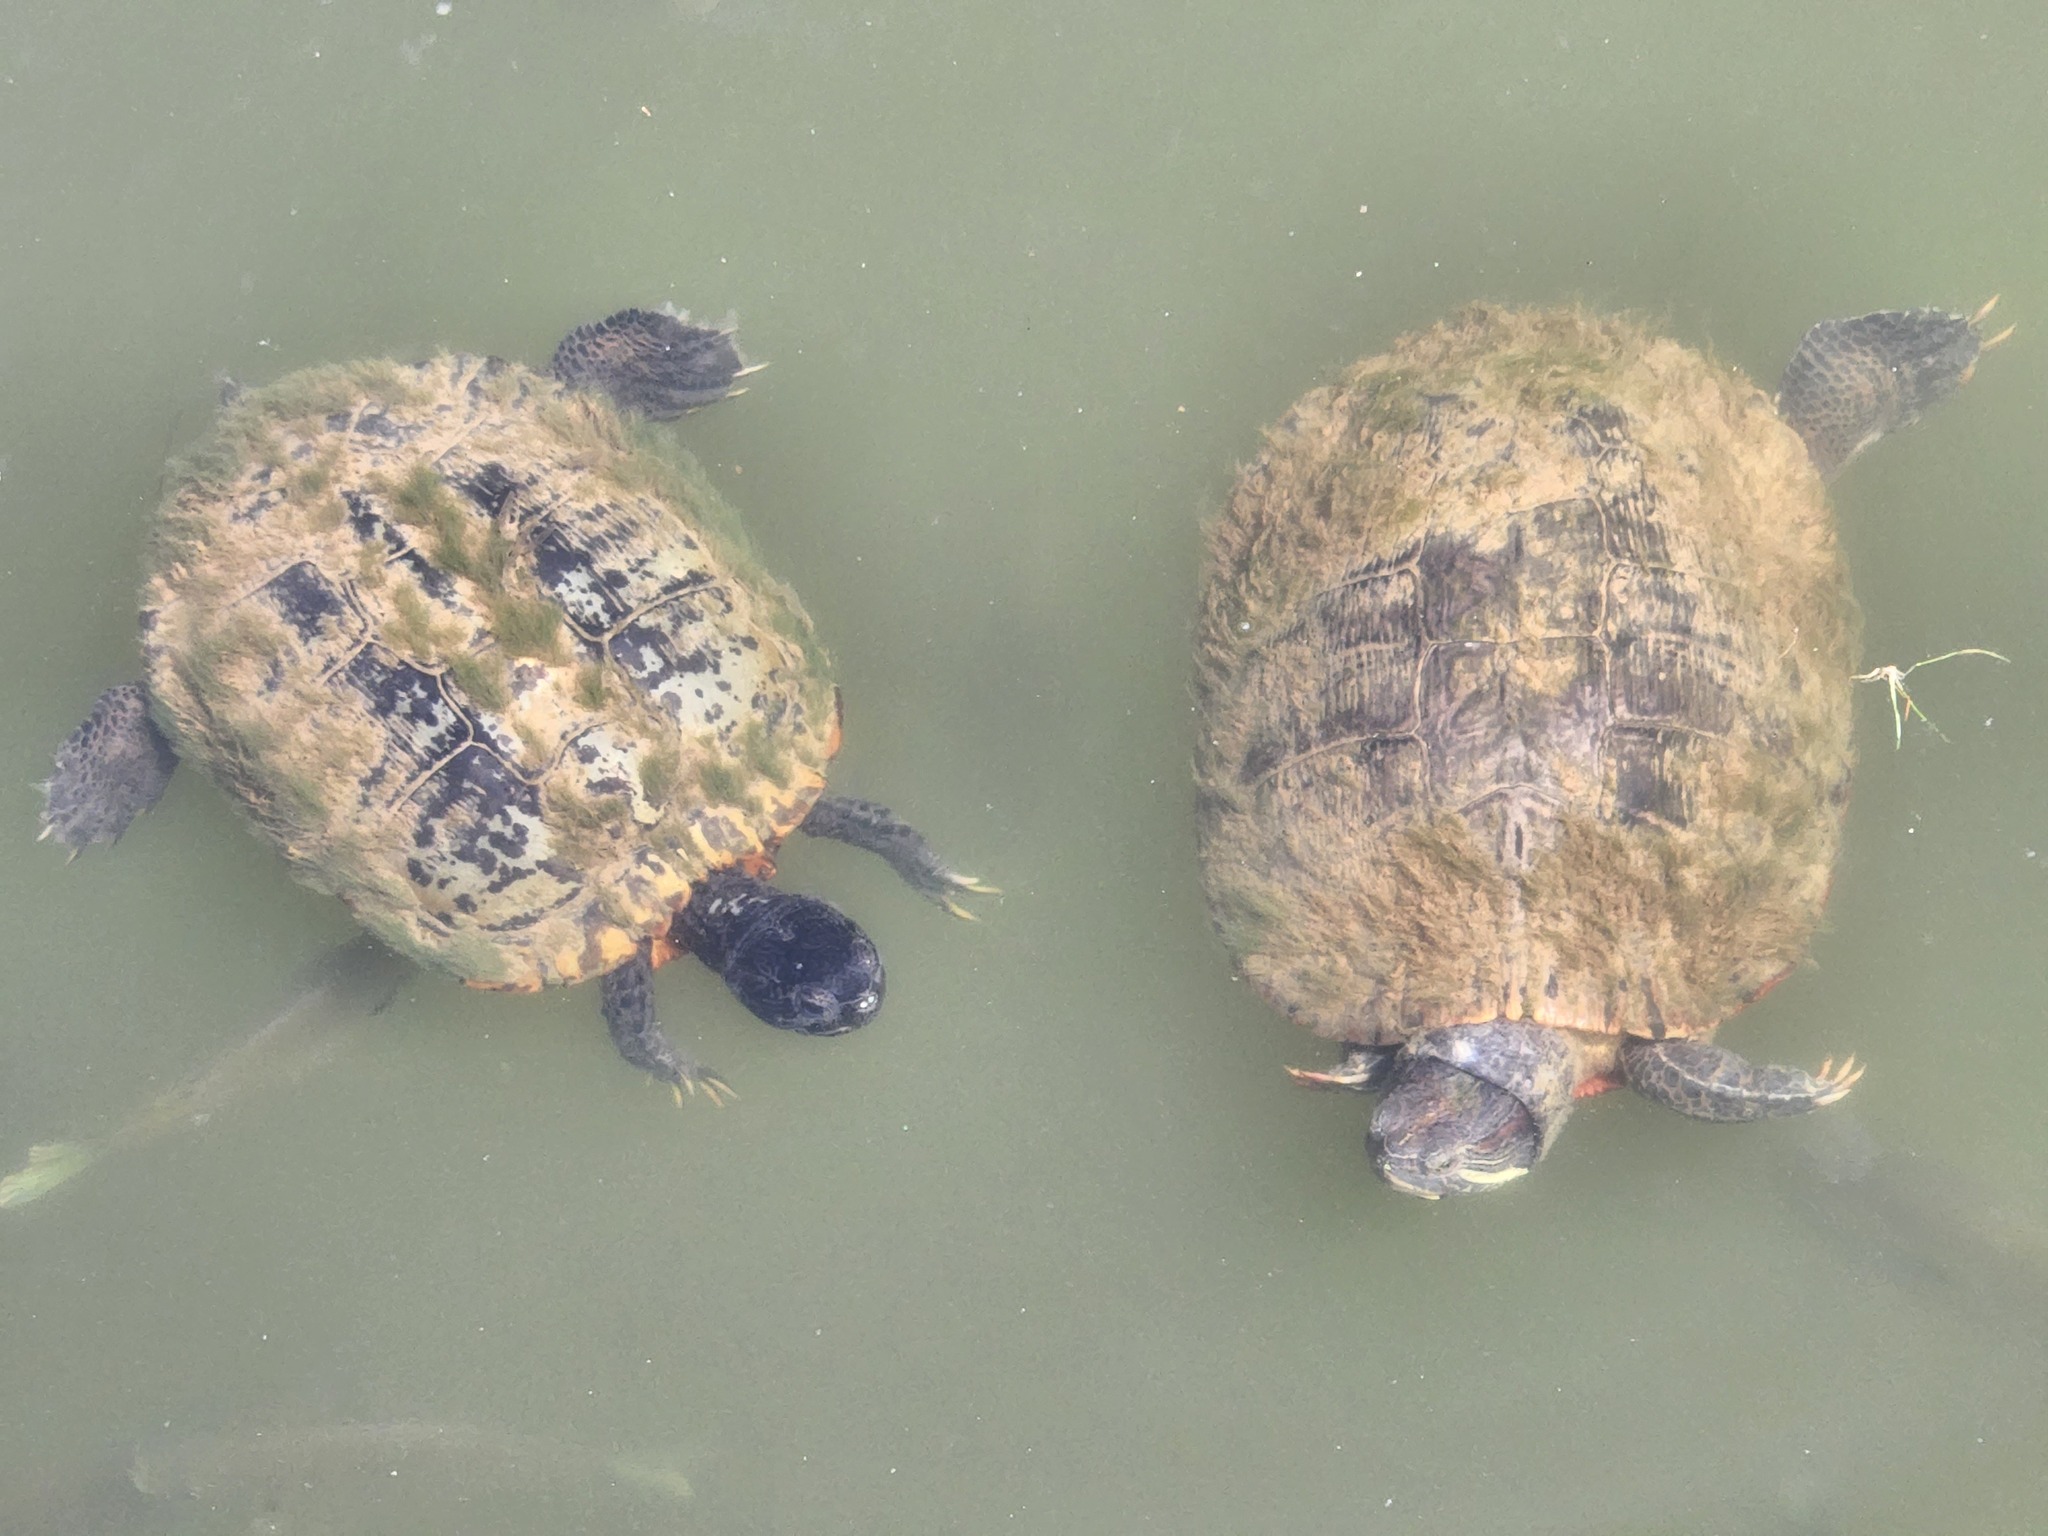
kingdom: Animalia
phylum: Chordata
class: Testudines
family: Emydidae
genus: Trachemys
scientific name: Trachemys scripta
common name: Slider
